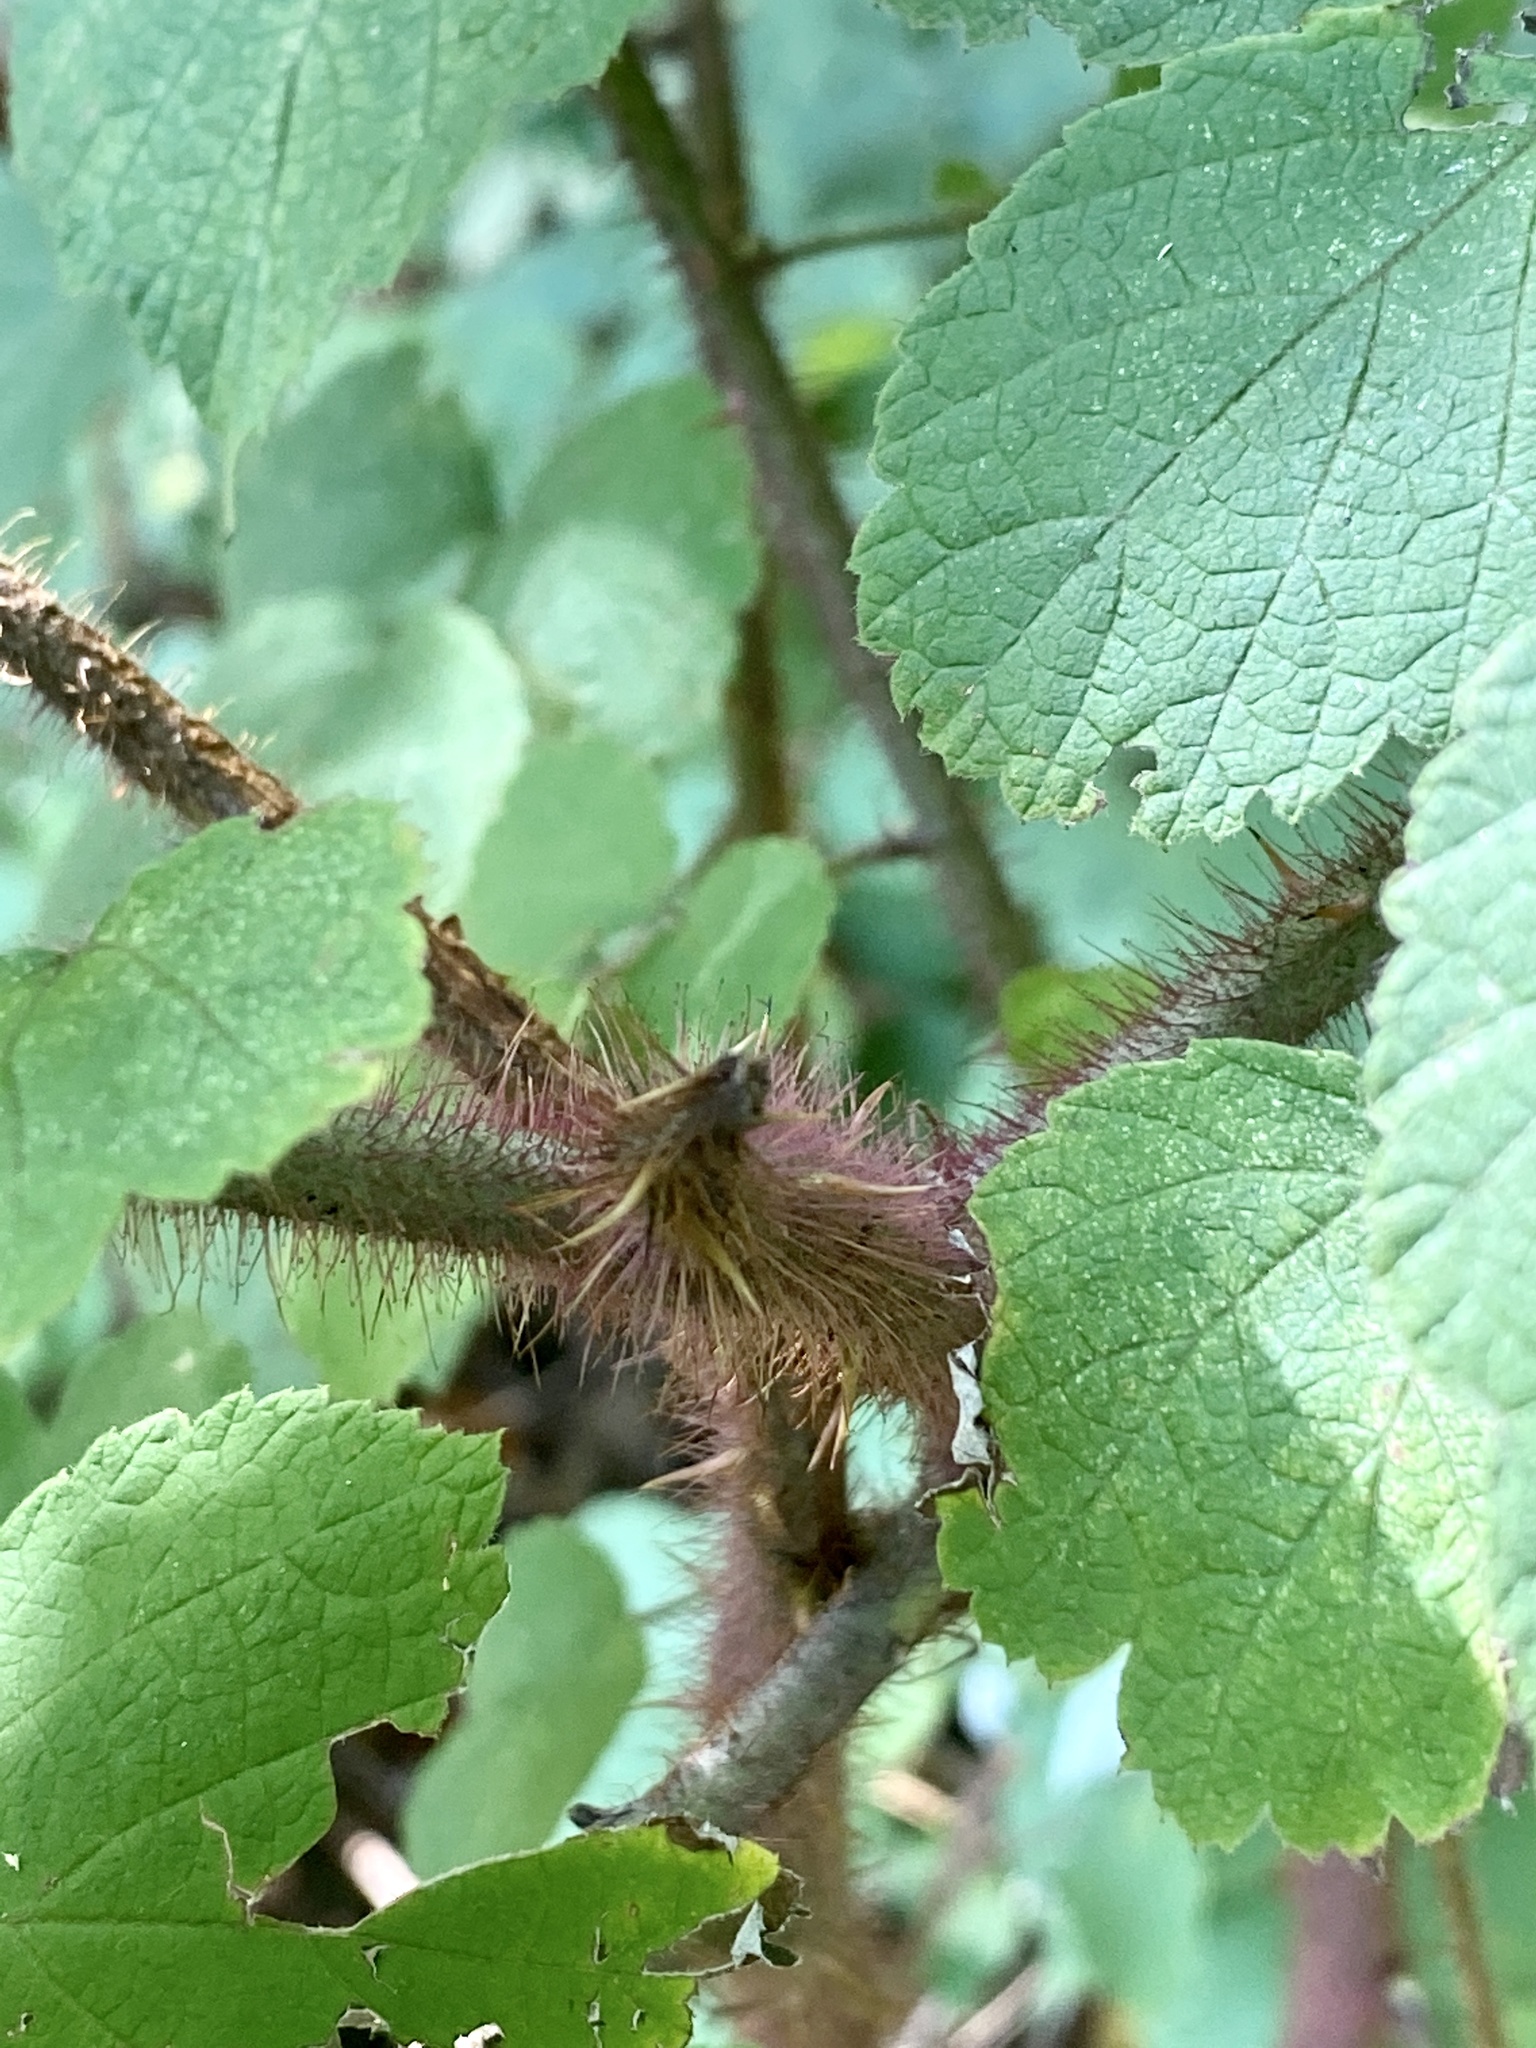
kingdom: Plantae
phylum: Tracheophyta
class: Magnoliopsida
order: Rosales
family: Rosaceae
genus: Rubus
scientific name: Rubus phoenicolasius
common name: Japanese wineberry
